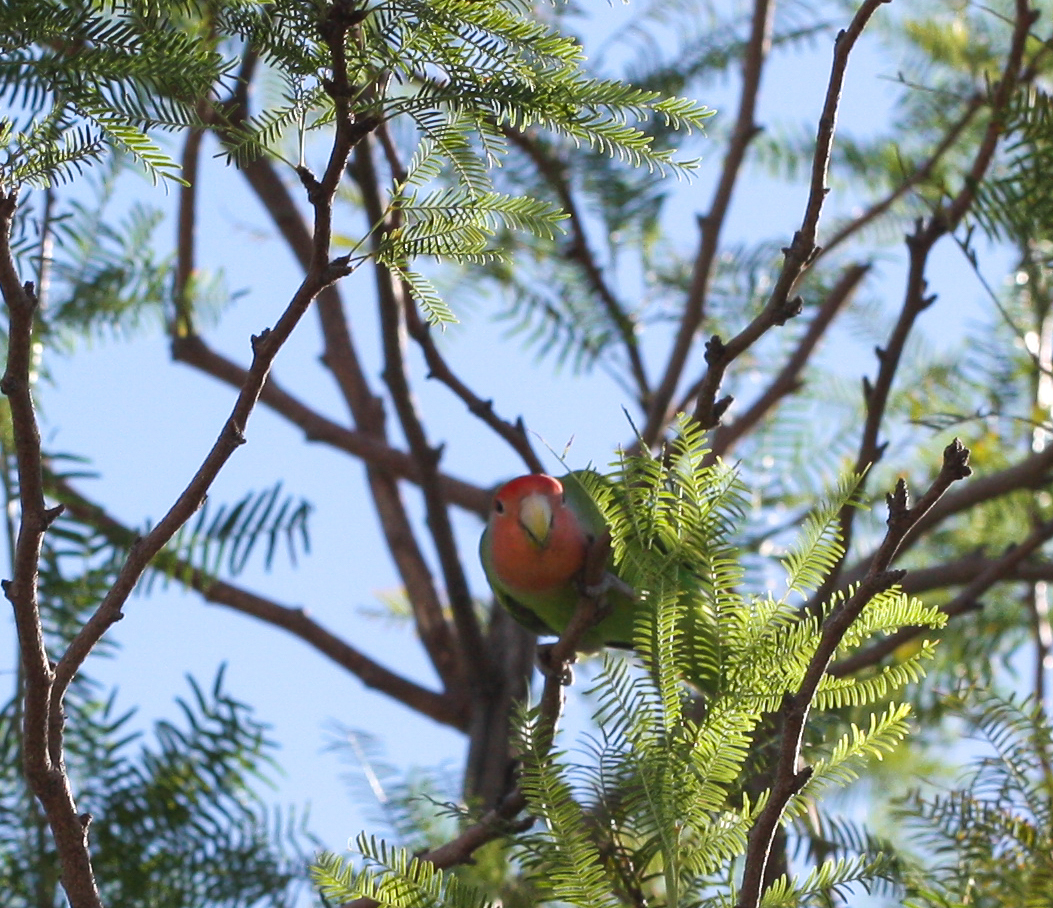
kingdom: Animalia
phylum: Chordata
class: Aves
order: Psittaciformes
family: Psittacidae
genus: Agapornis
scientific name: Agapornis roseicollis
